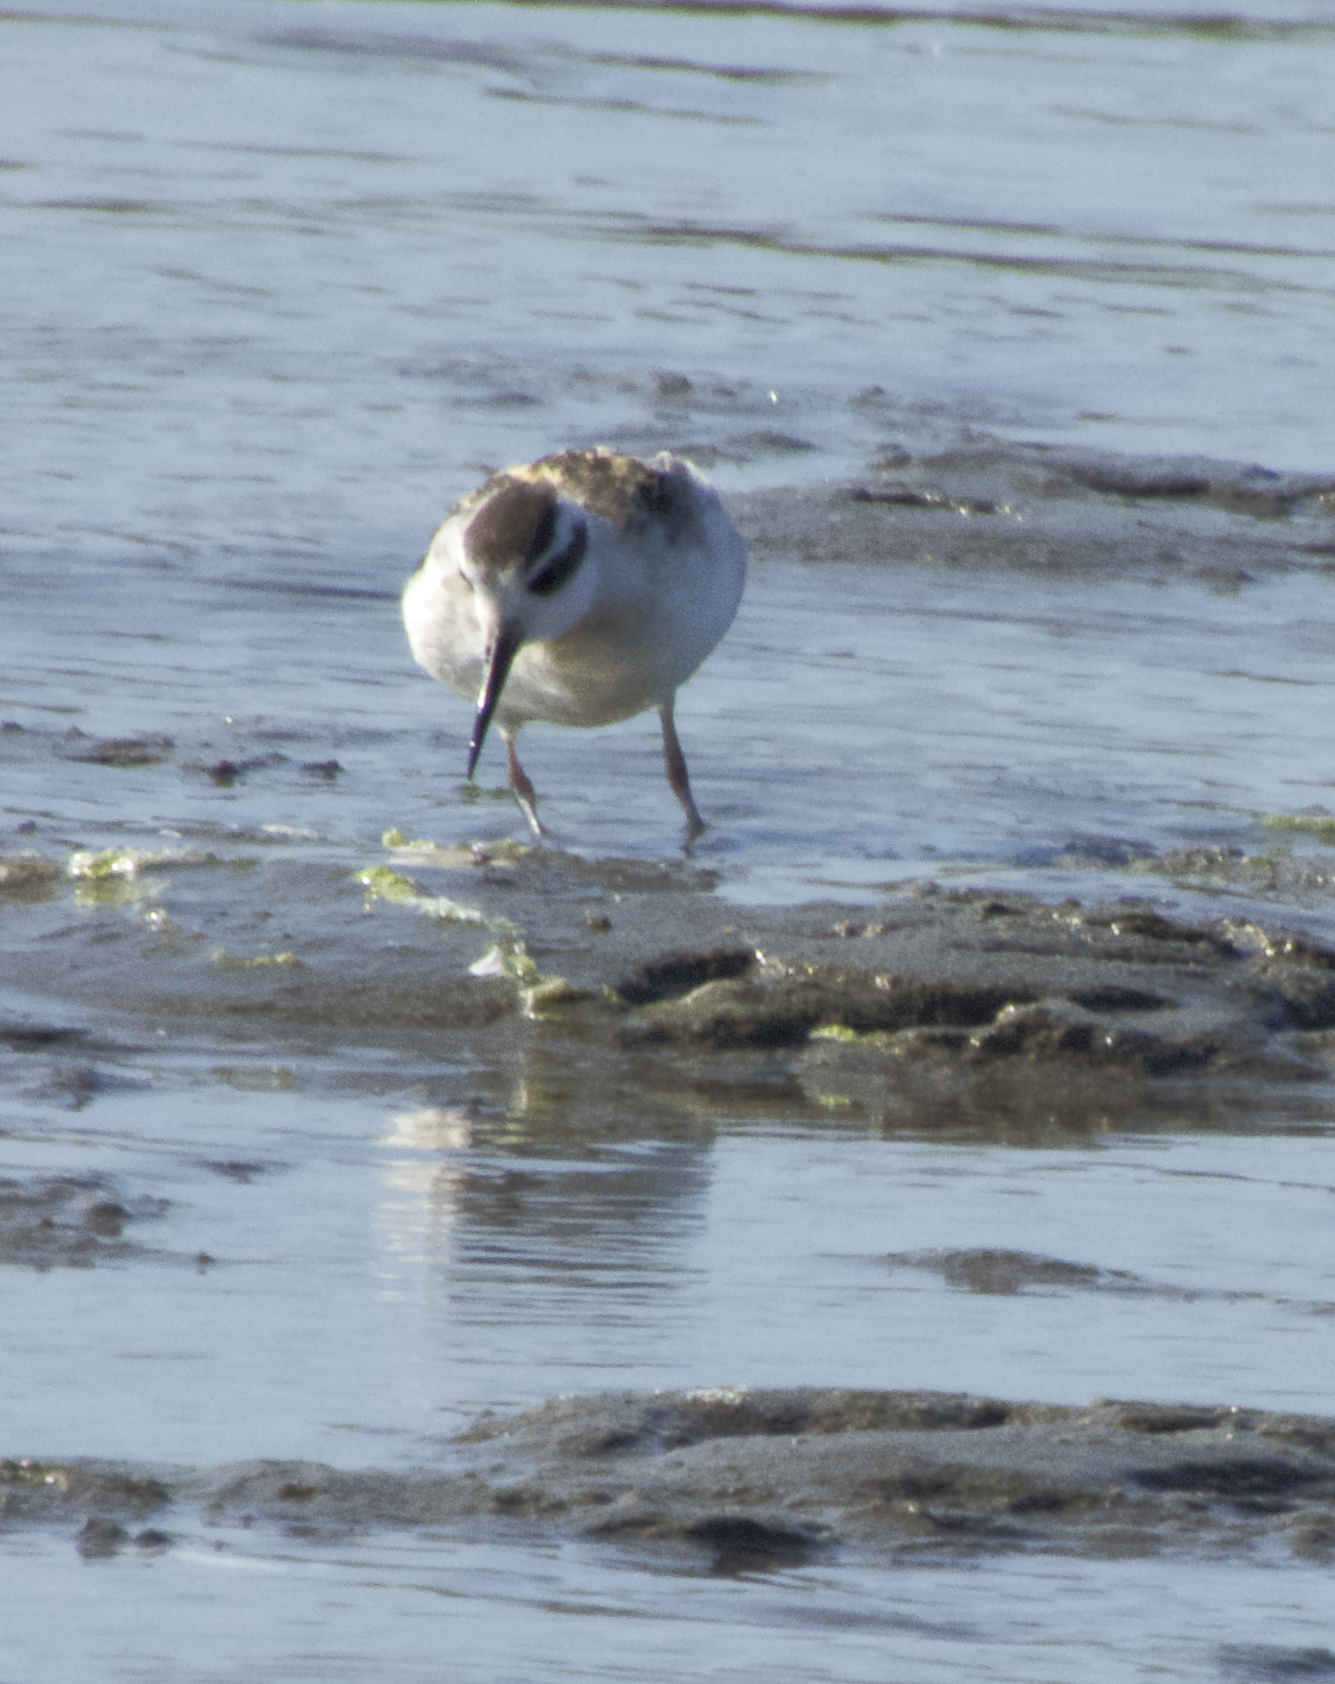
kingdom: Animalia
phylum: Chordata
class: Aves
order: Charadriiformes
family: Scolopacidae
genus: Phalaropus
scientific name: Phalaropus lobatus
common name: Red-necked phalarope
